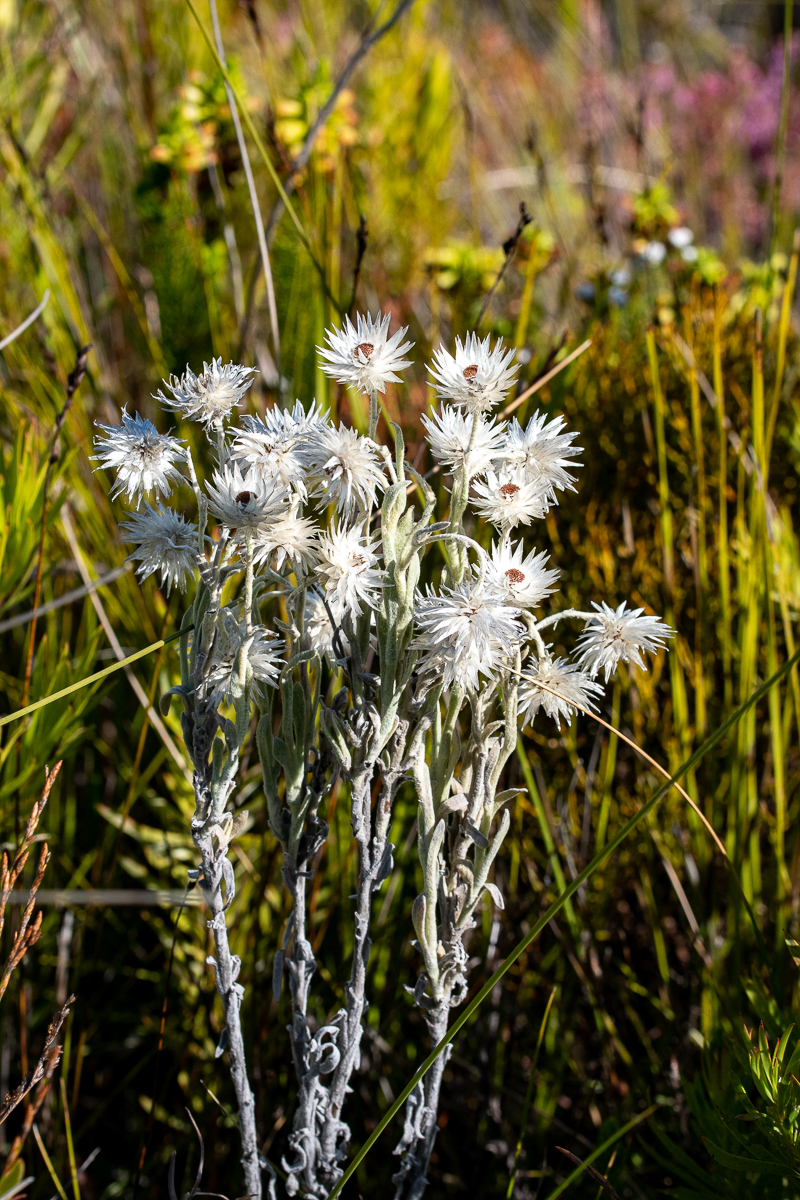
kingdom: Plantae
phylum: Tracheophyta
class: Magnoliopsida
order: Asterales
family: Asteraceae
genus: Syncarpha
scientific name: Syncarpha vestita
